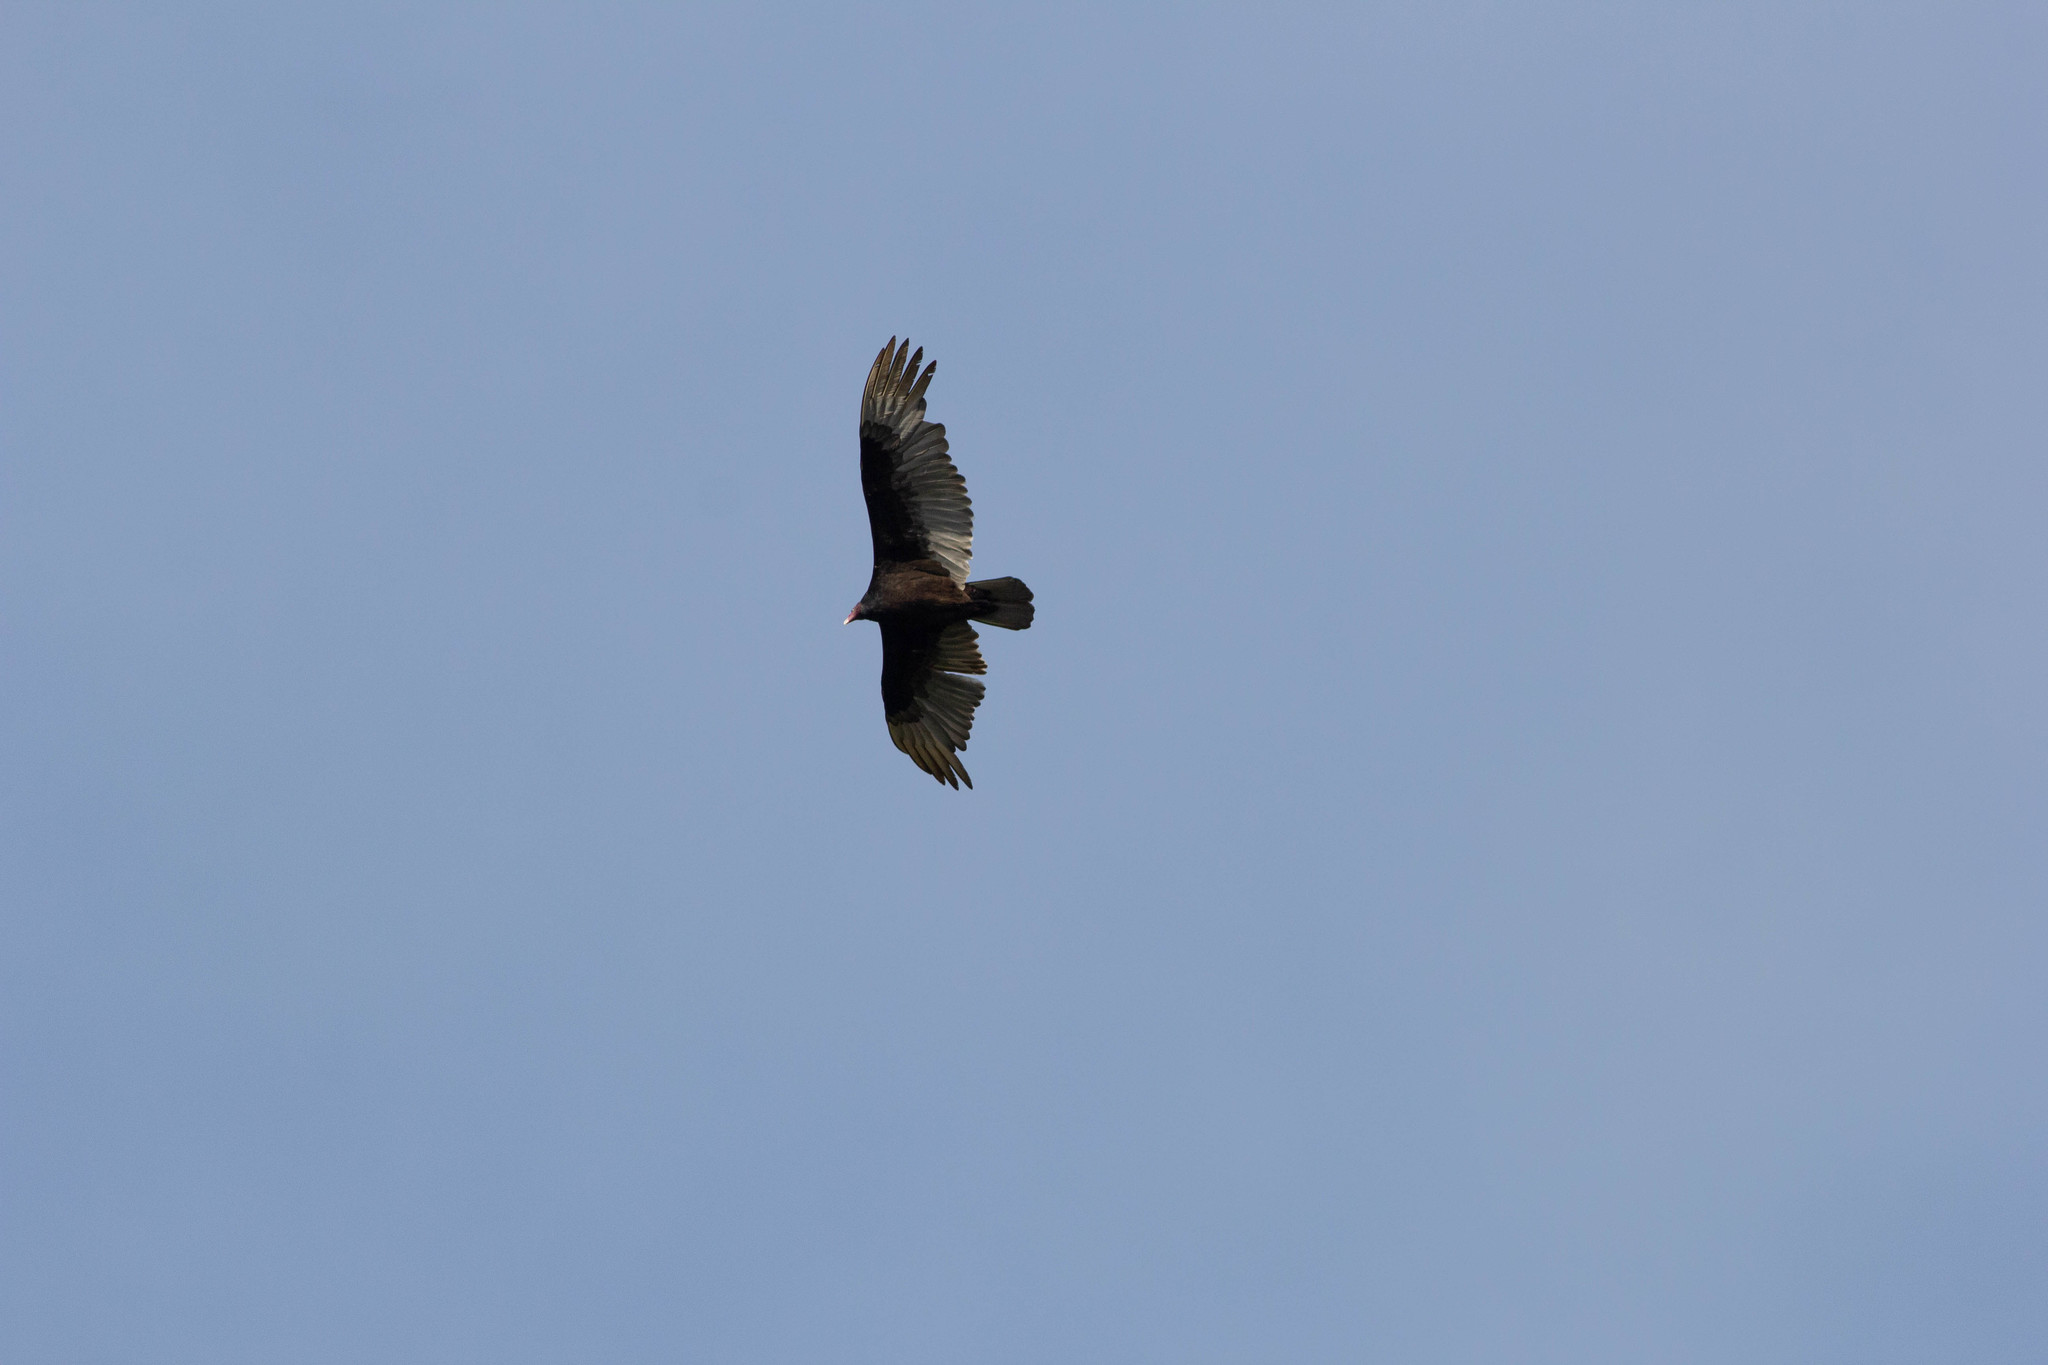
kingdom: Animalia
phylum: Chordata
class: Aves
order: Accipitriformes
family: Cathartidae
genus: Cathartes
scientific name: Cathartes aura
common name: Turkey vulture
